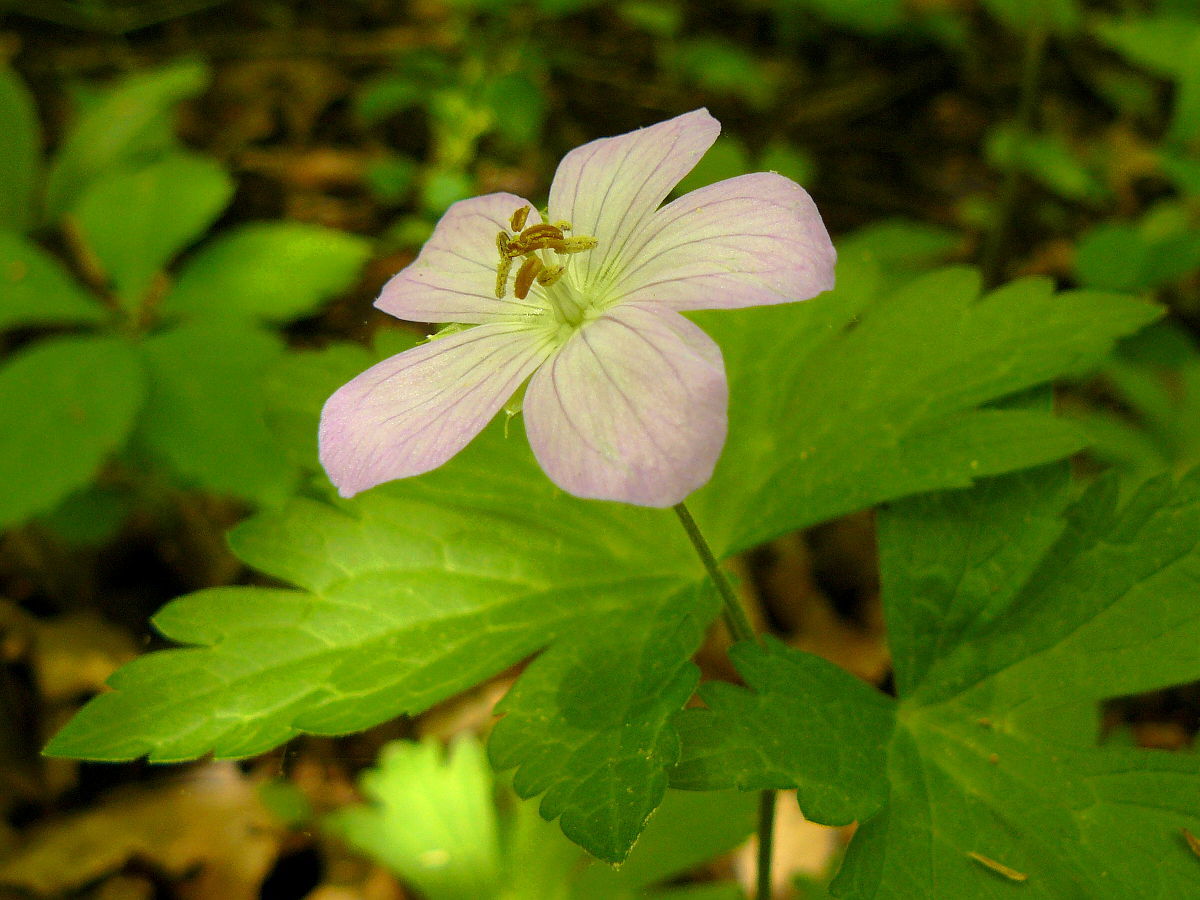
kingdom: Plantae
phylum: Tracheophyta
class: Magnoliopsida
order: Geraniales
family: Geraniaceae
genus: Geranium
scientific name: Geranium maculatum
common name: Spotted geranium
